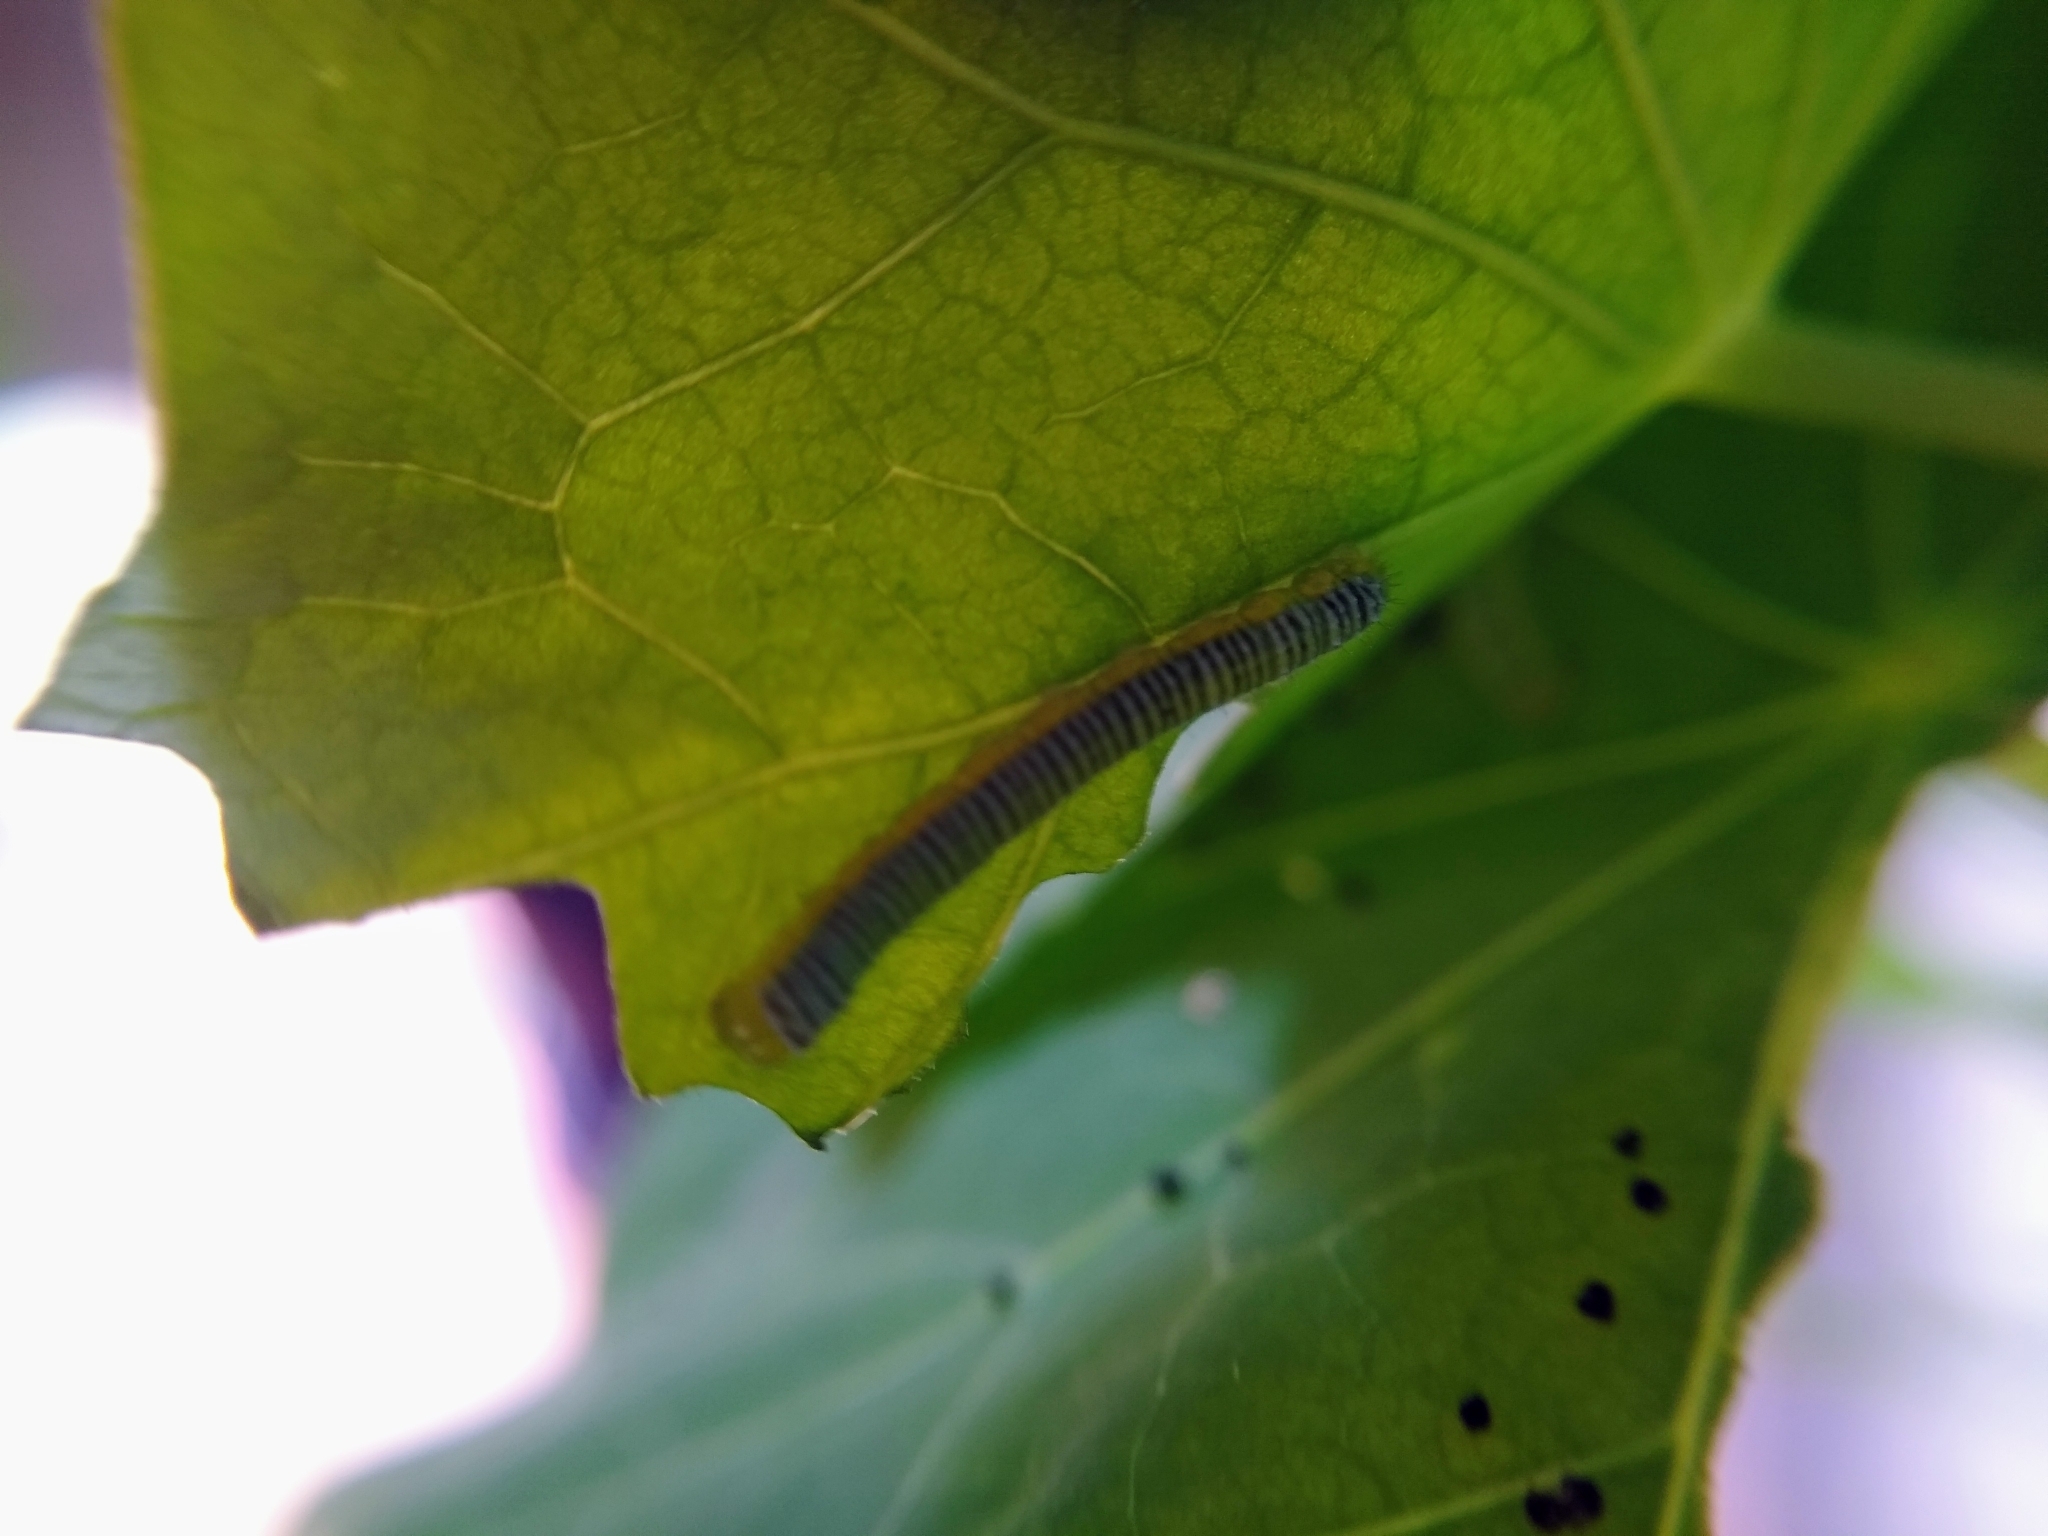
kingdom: Animalia
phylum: Arthropoda
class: Insecta
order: Lepidoptera
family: Pieridae
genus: Leptophobia
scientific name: Leptophobia aripa
